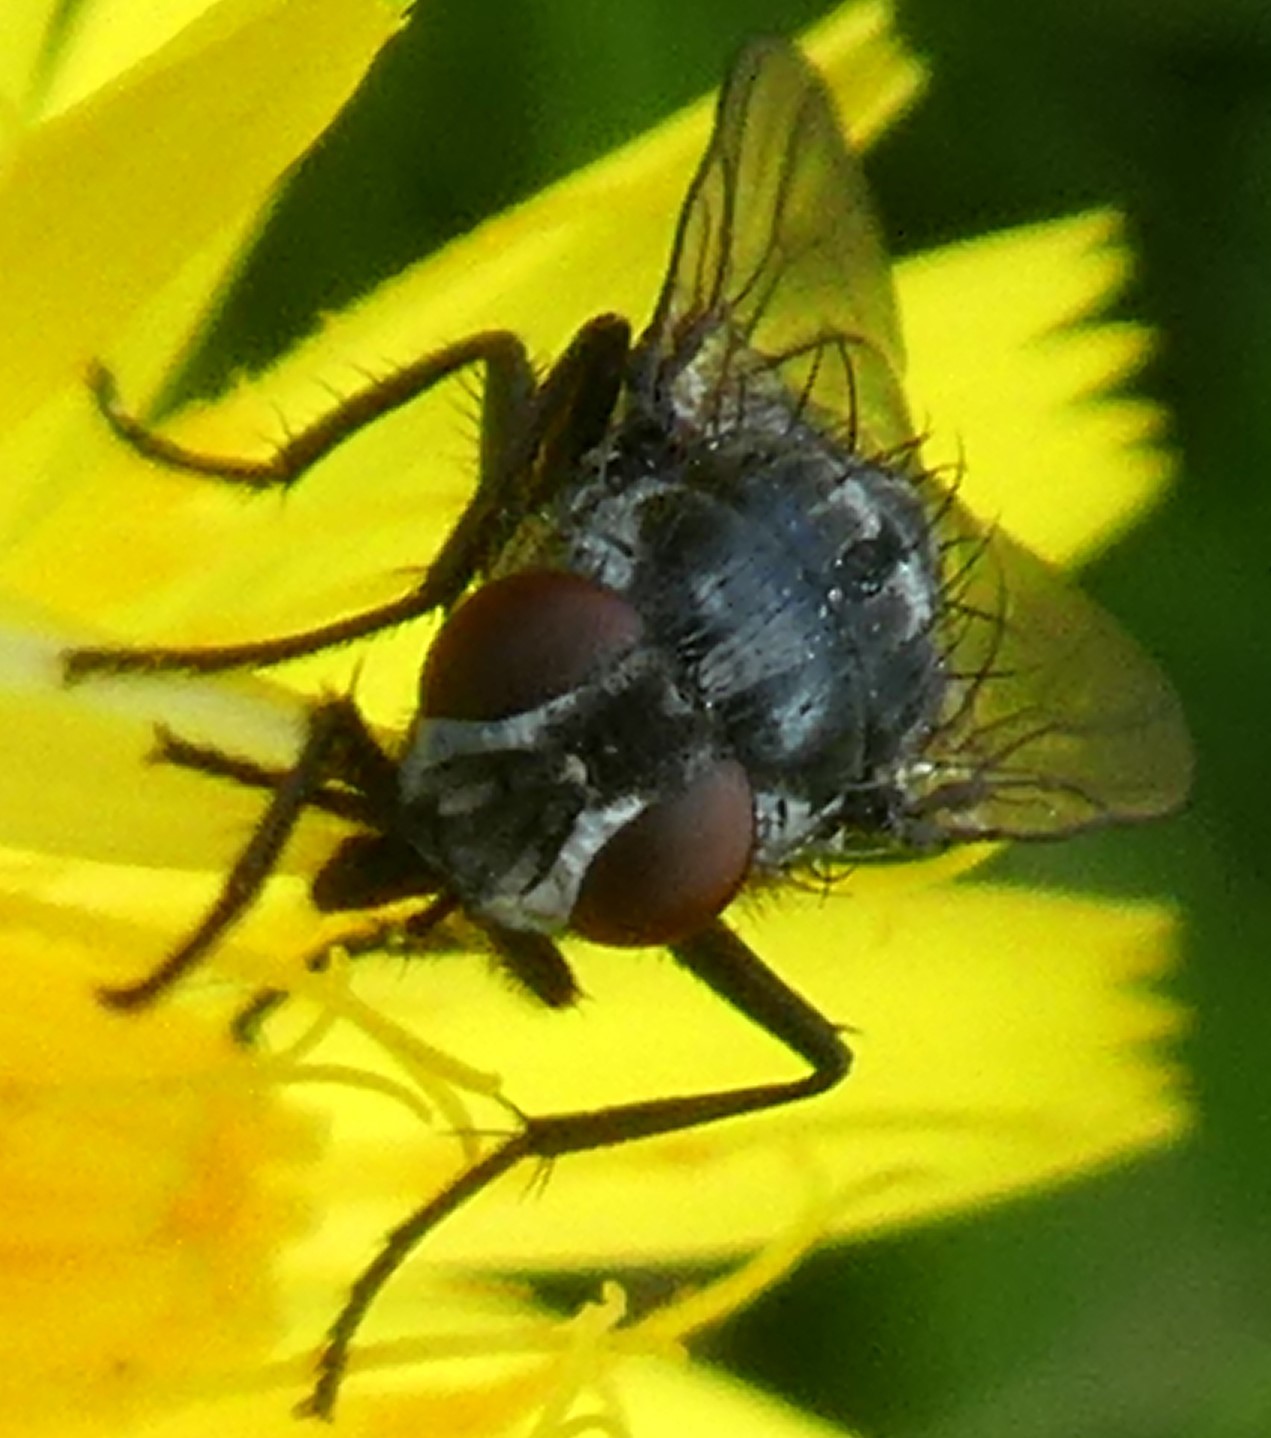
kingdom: Animalia
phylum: Arthropoda
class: Insecta
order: Diptera
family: Muscidae
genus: Morellia
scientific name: Morellia
